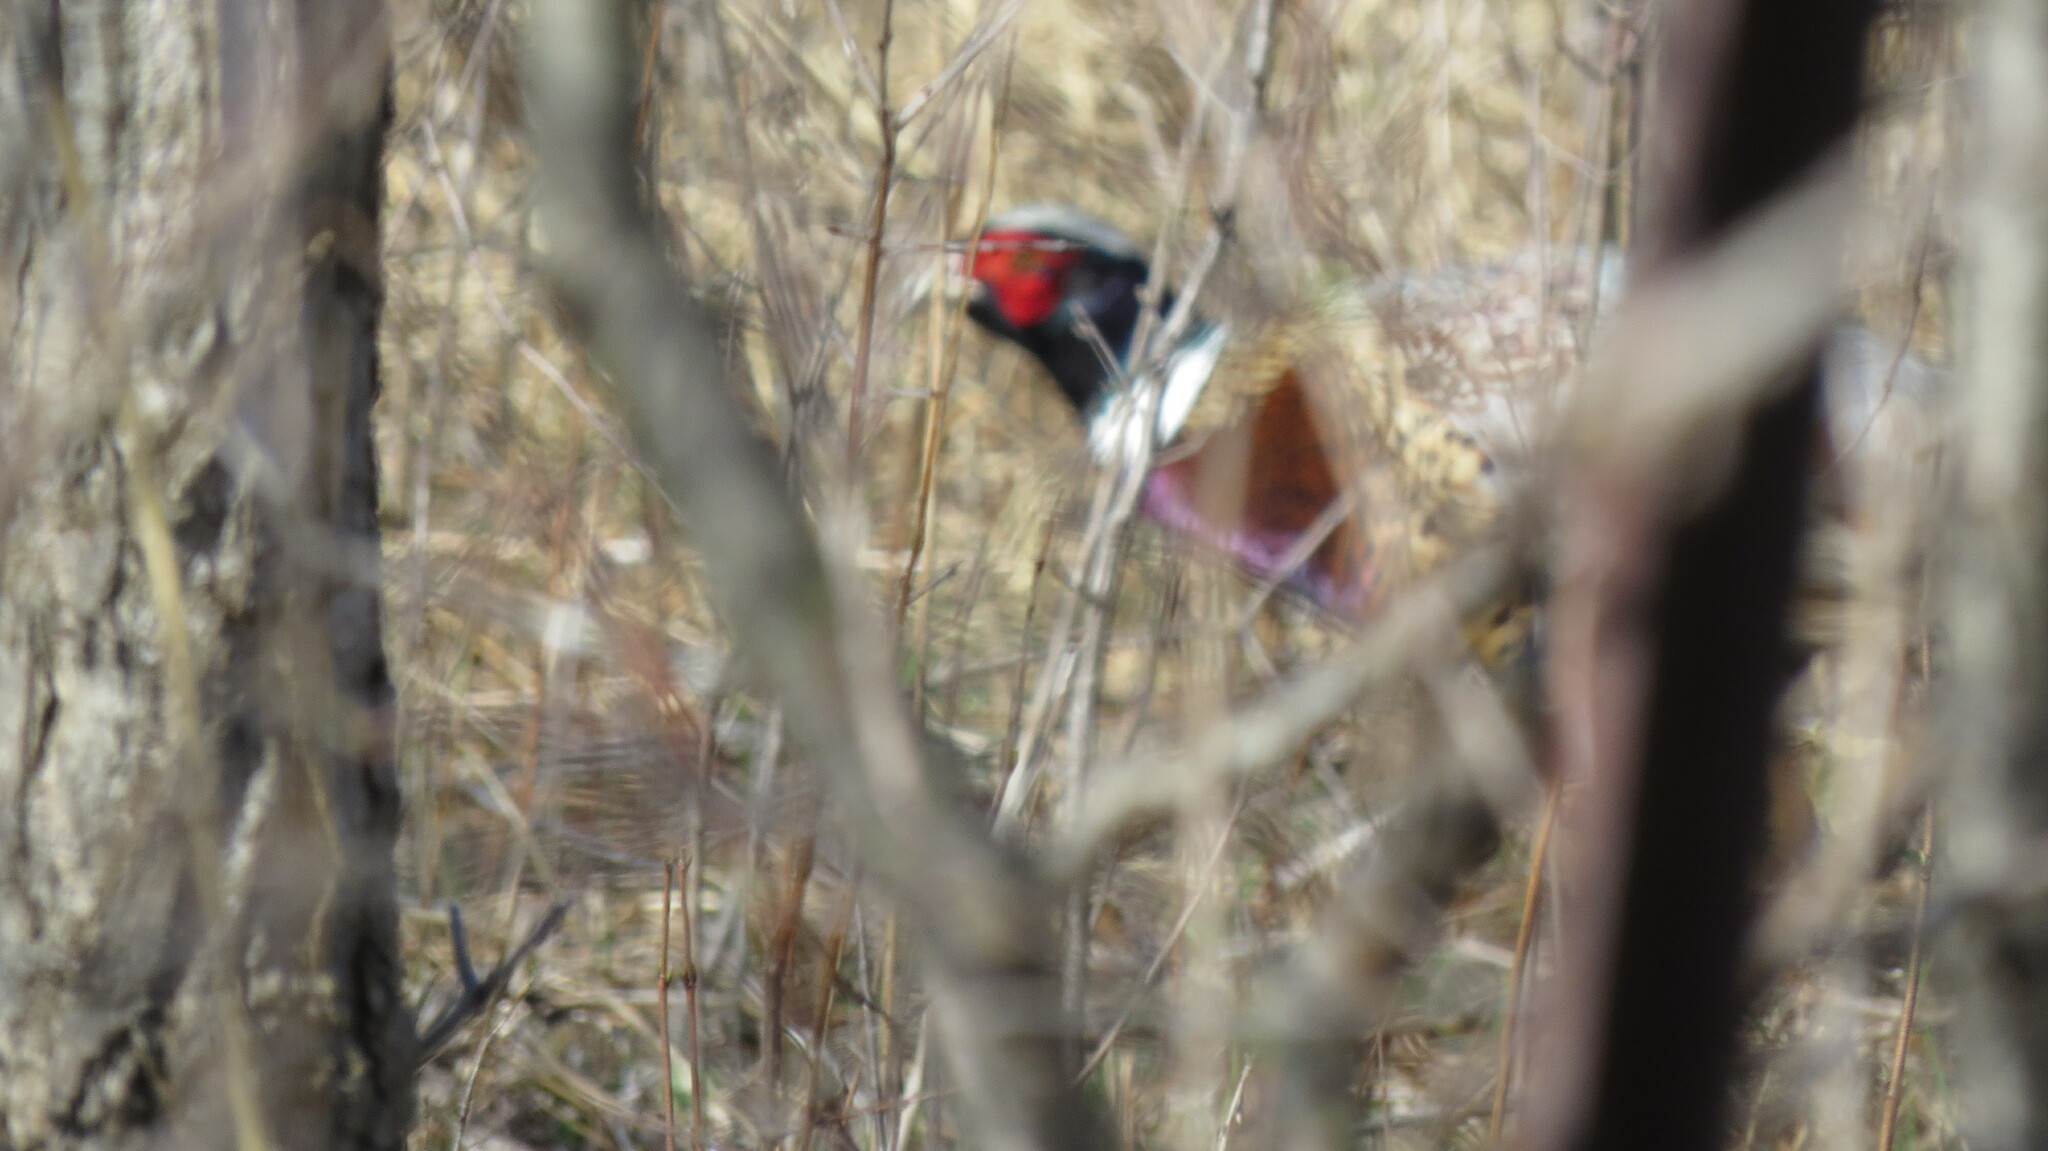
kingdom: Animalia
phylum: Chordata
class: Aves
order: Galliformes
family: Phasianidae
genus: Phasianus
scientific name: Phasianus colchicus
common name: Common pheasant
